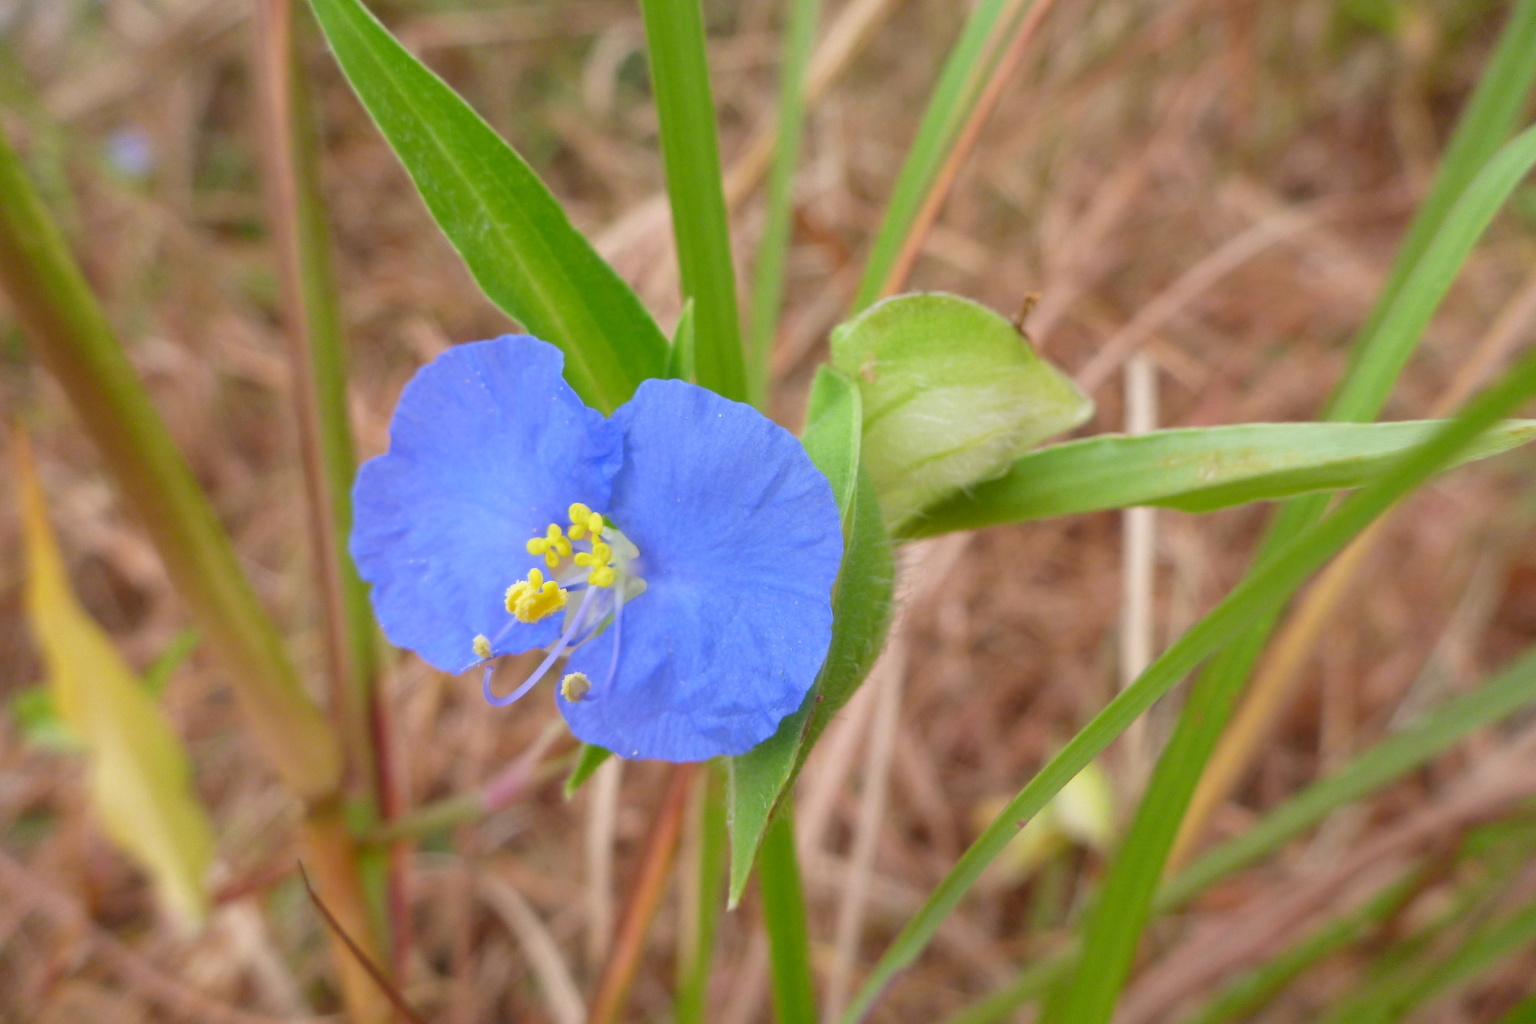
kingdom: Plantae
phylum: Tracheophyta
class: Liliopsida
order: Commelinales
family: Commelinaceae
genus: Commelina
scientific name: Commelina ensifolia
